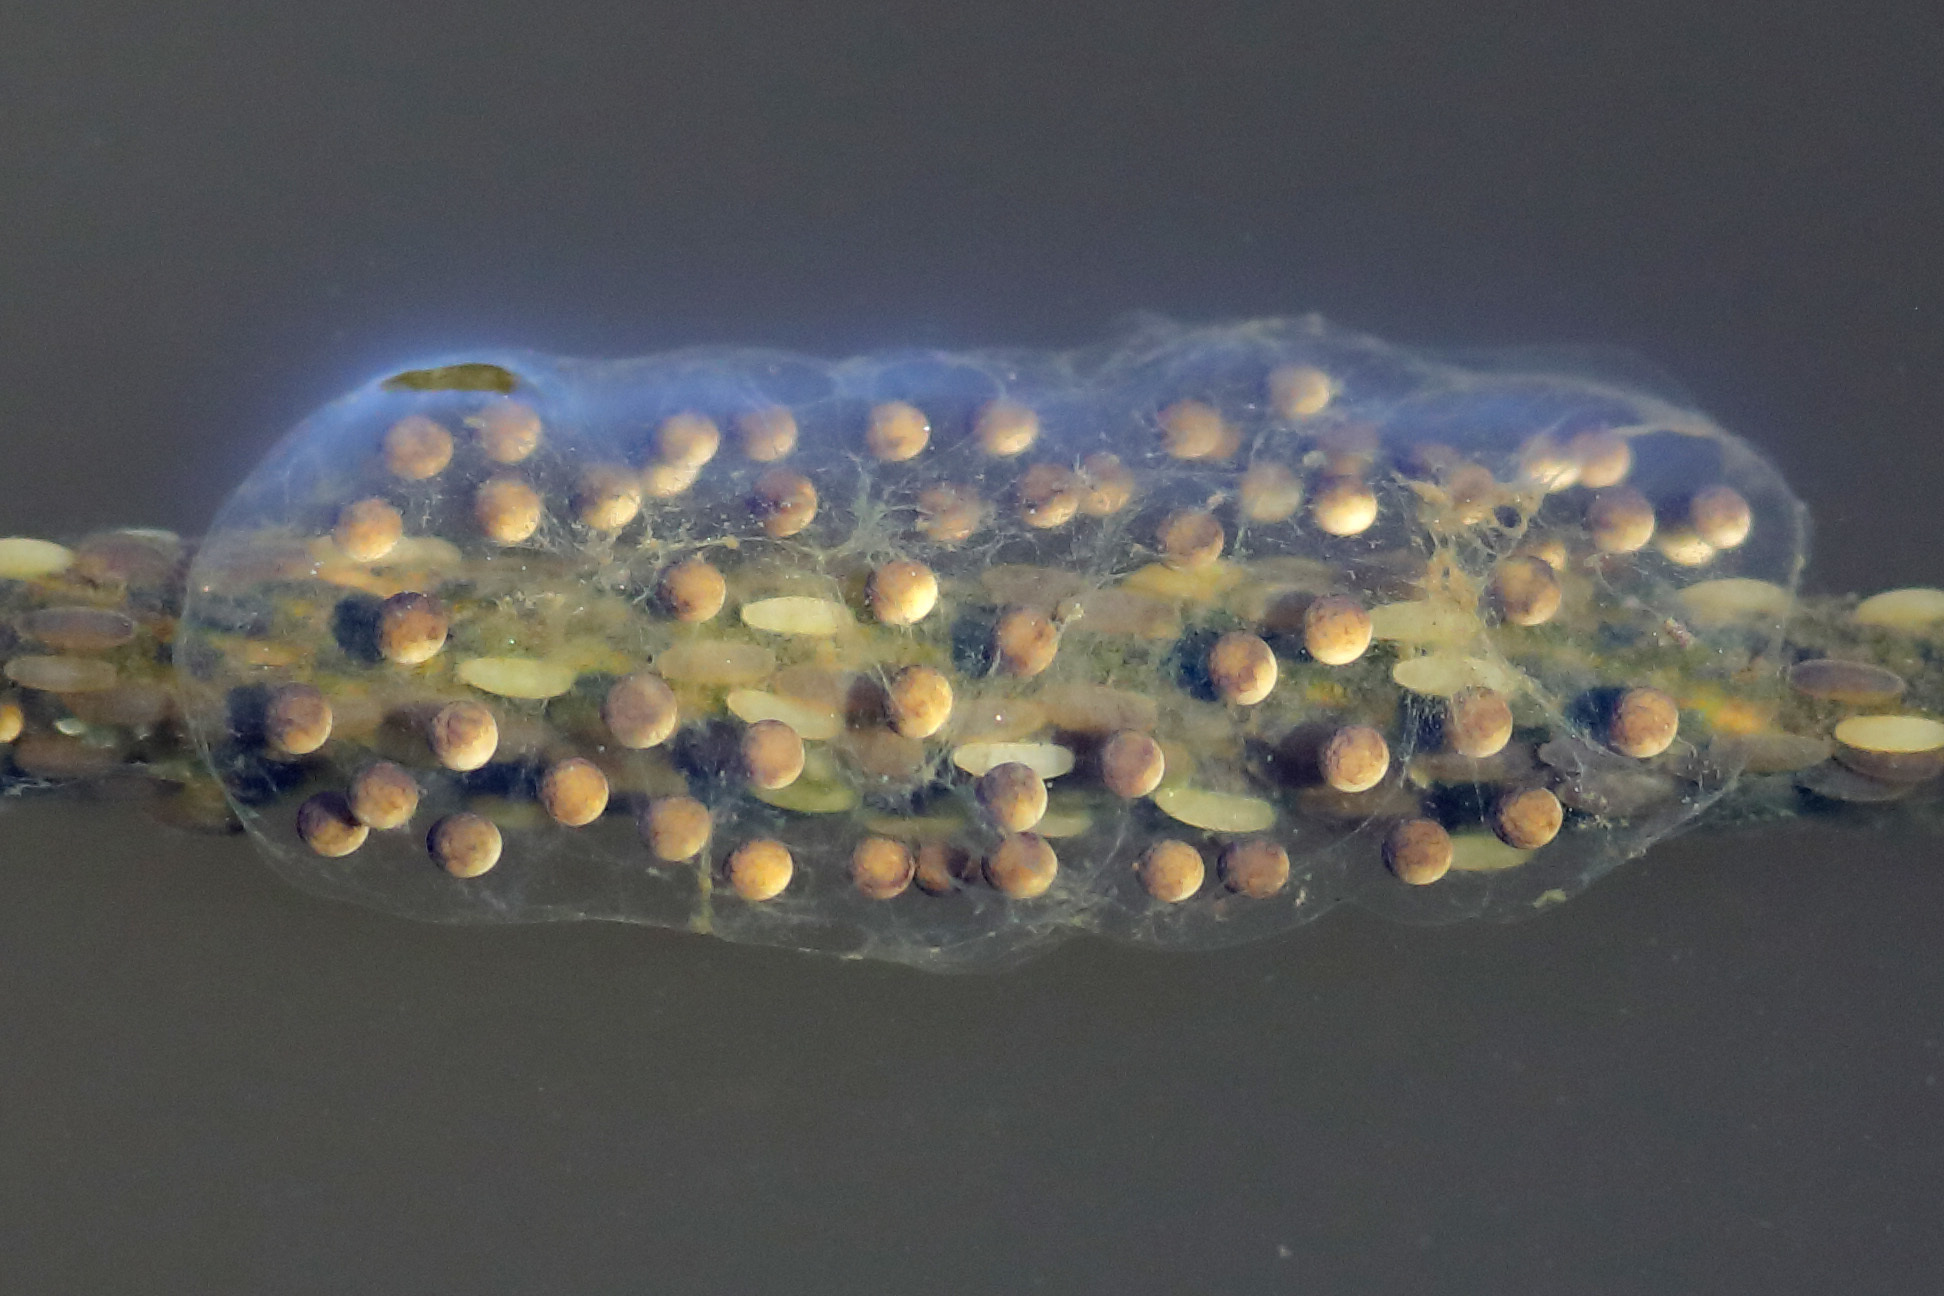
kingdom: Animalia
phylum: Chordata
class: Amphibia
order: Anura
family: Hylidae
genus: Pseudacris
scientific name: Pseudacris regilla
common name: Pacific chorus frog
